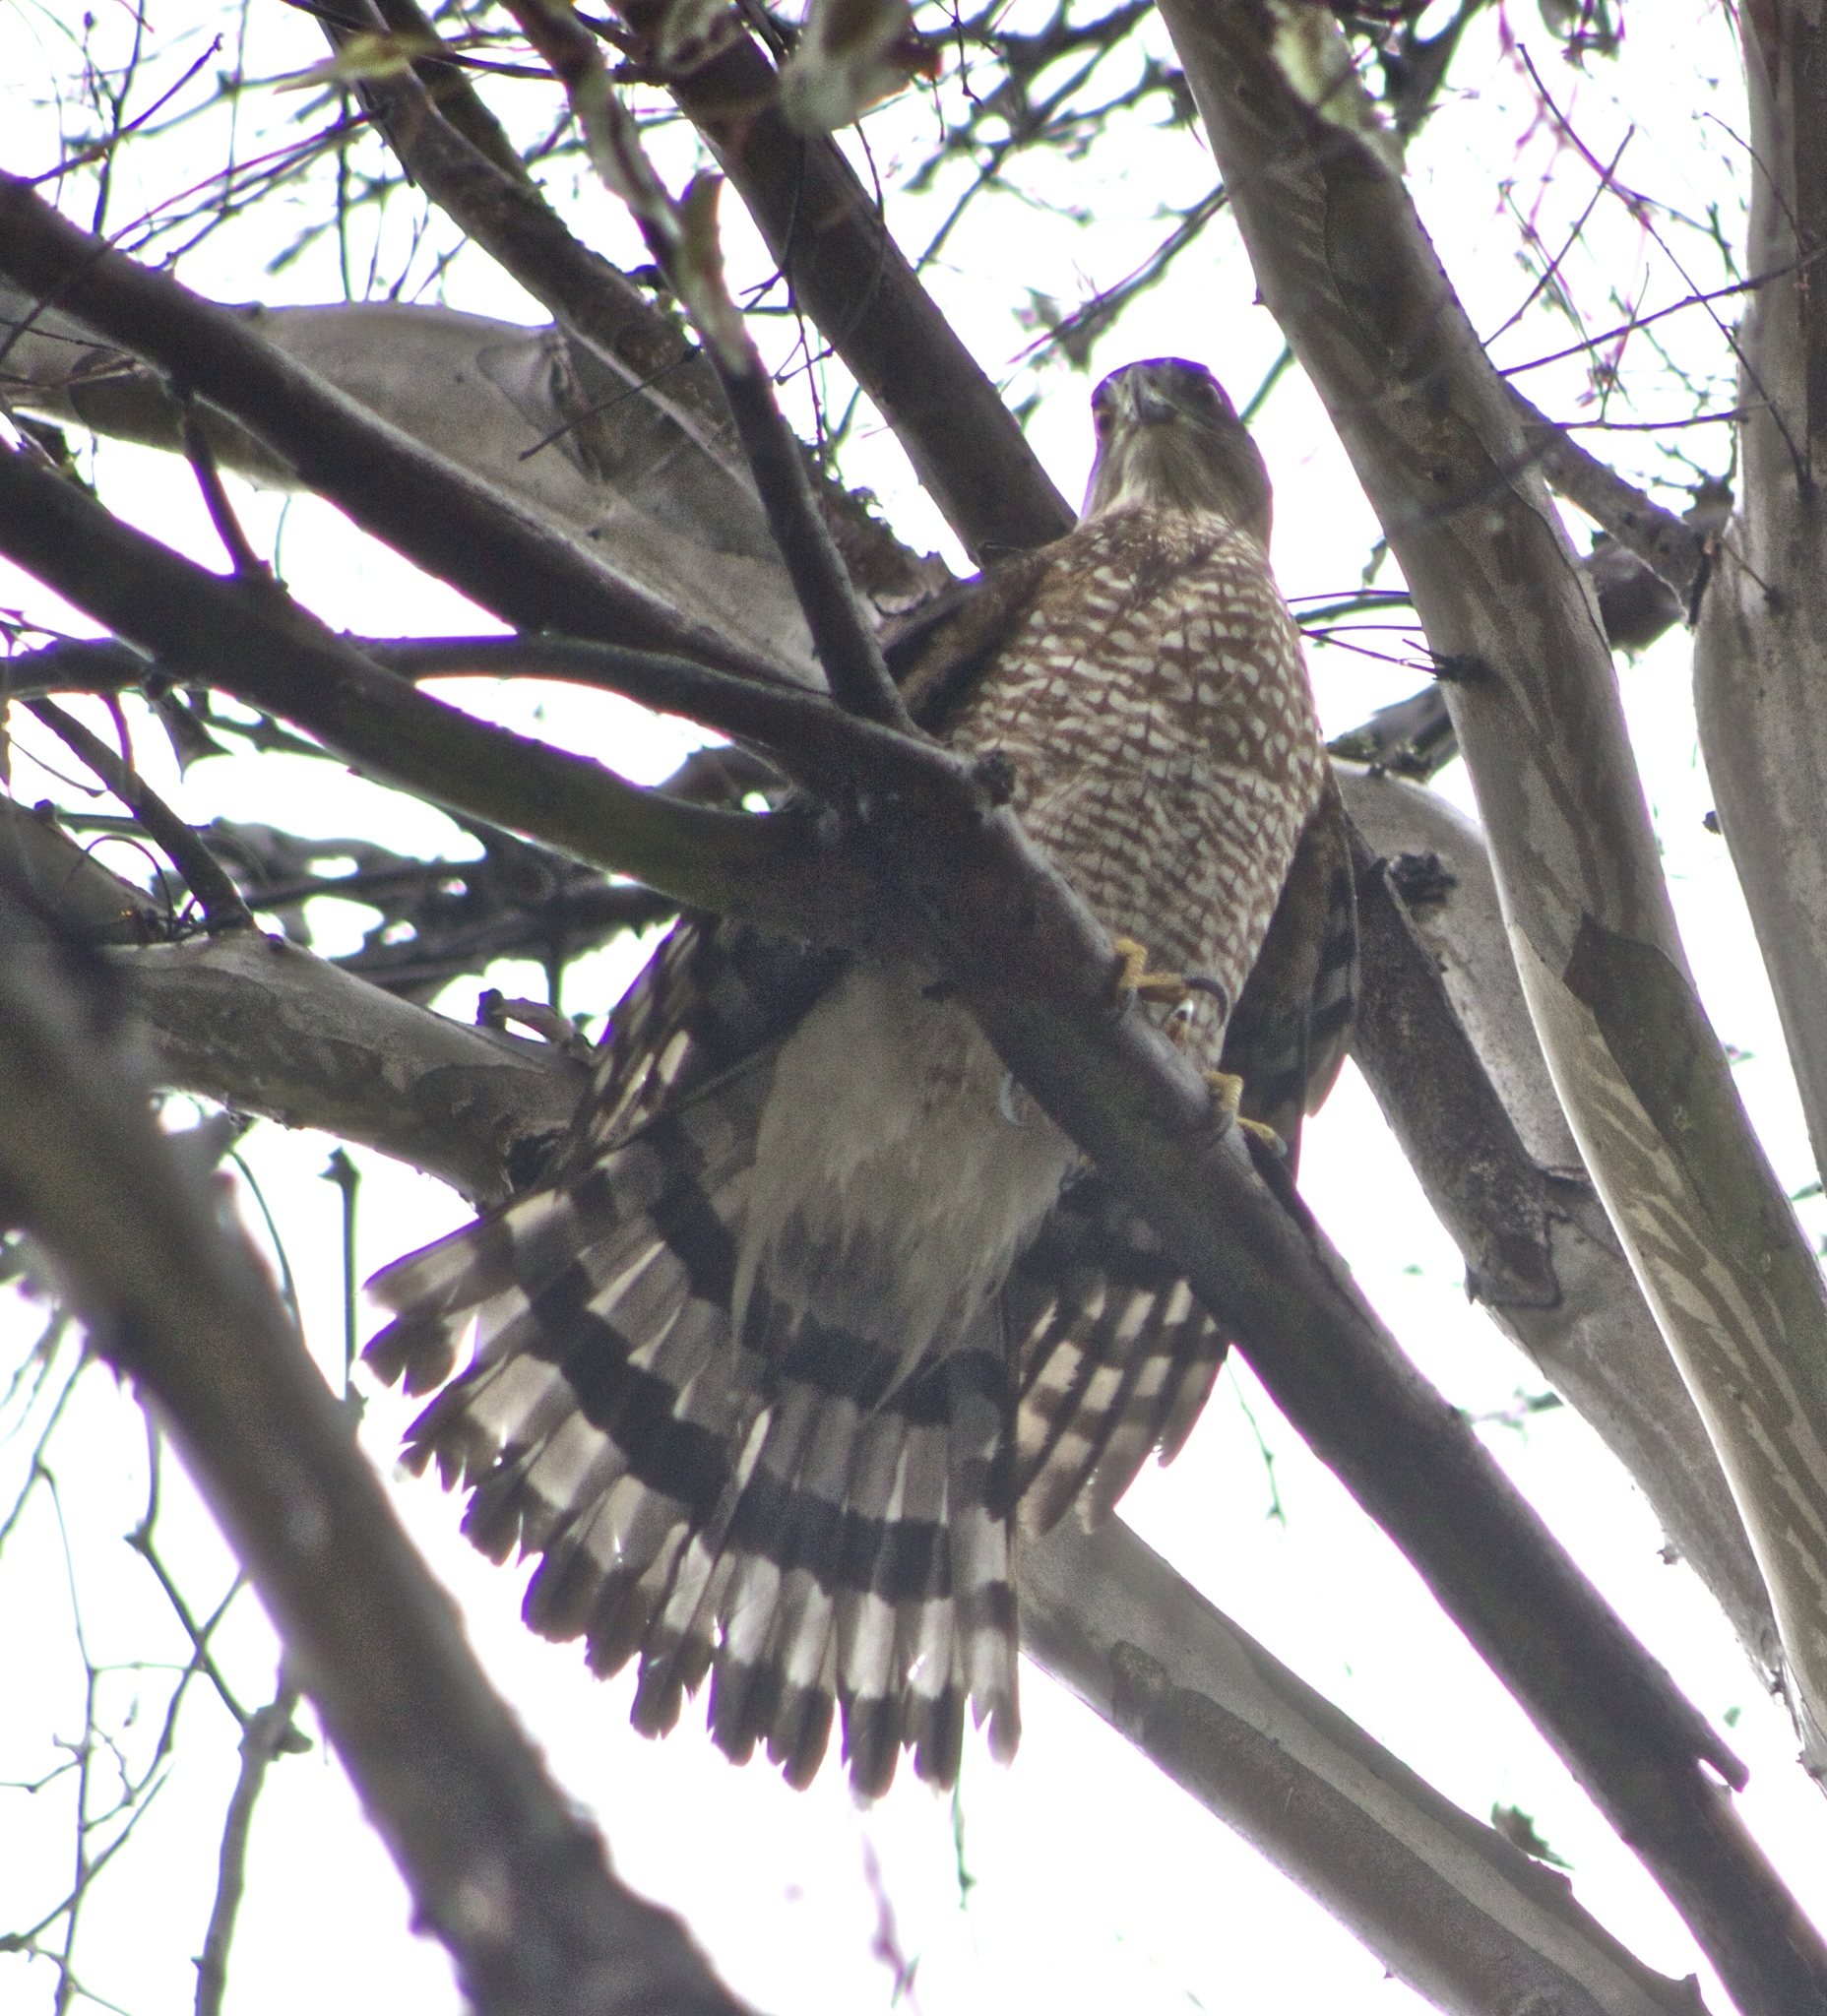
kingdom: Animalia
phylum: Chordata
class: Aves
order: Accipitriformes
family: Accipitridae
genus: Accipiter
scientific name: Accipiter cooperii
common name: Cooper's hawk
